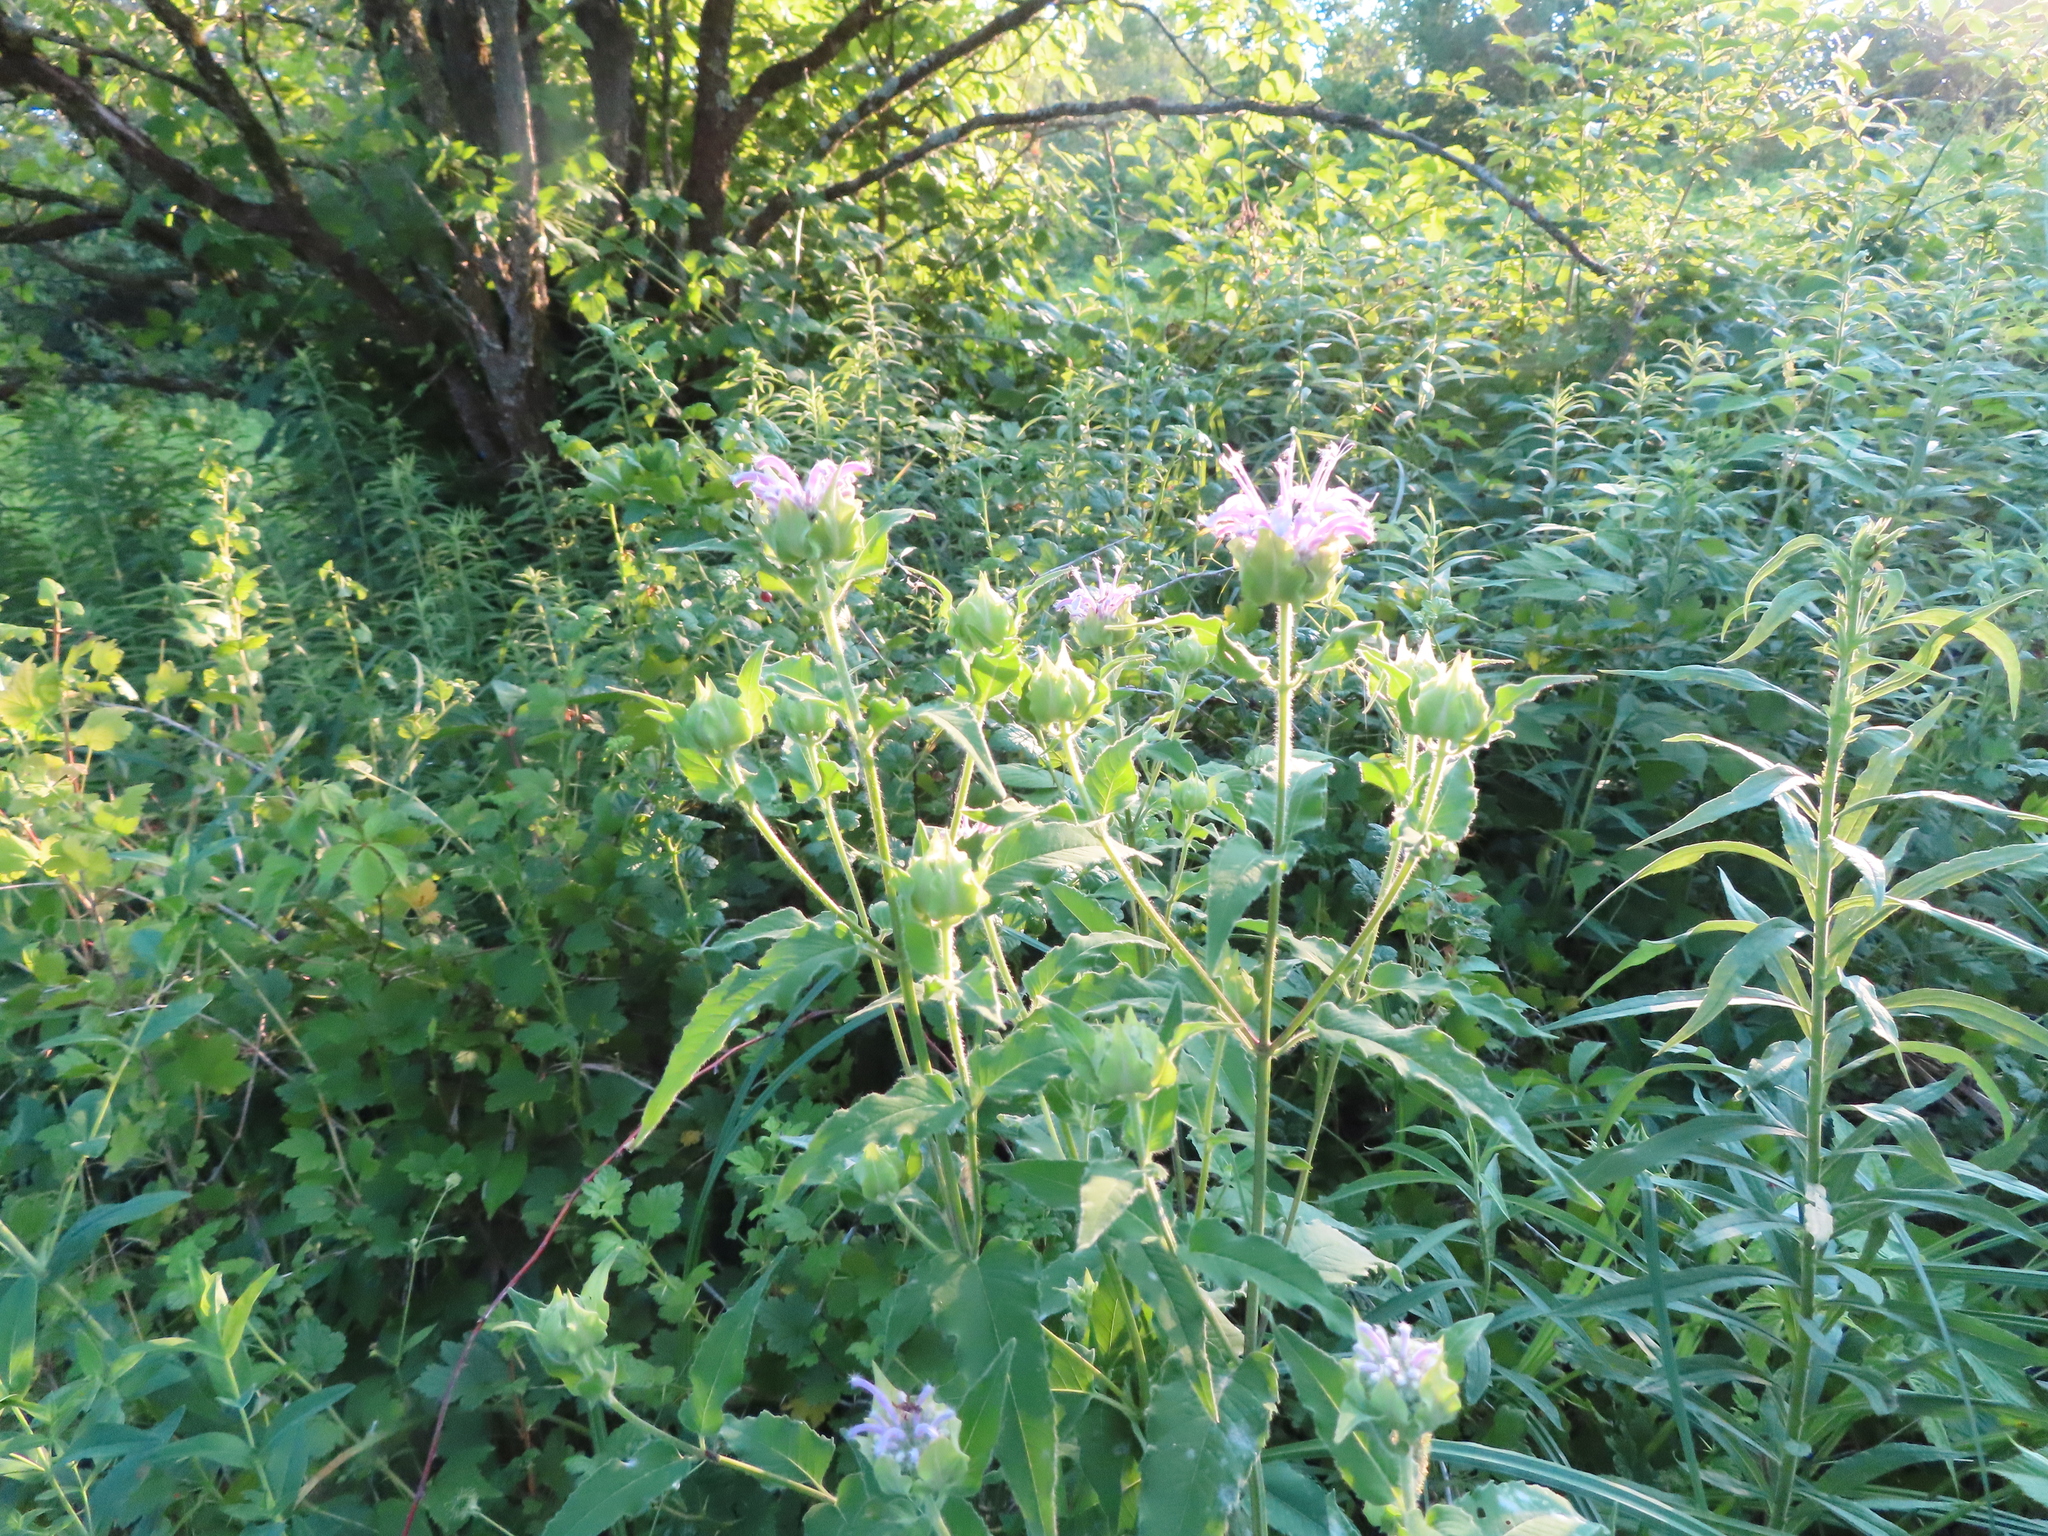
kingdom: Plantae
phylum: Tracheophyta
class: Magnoliopsida
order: Lamiales
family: Lamiaceae
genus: Monarda
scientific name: Monarda fistulosa
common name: Purple beebalm
